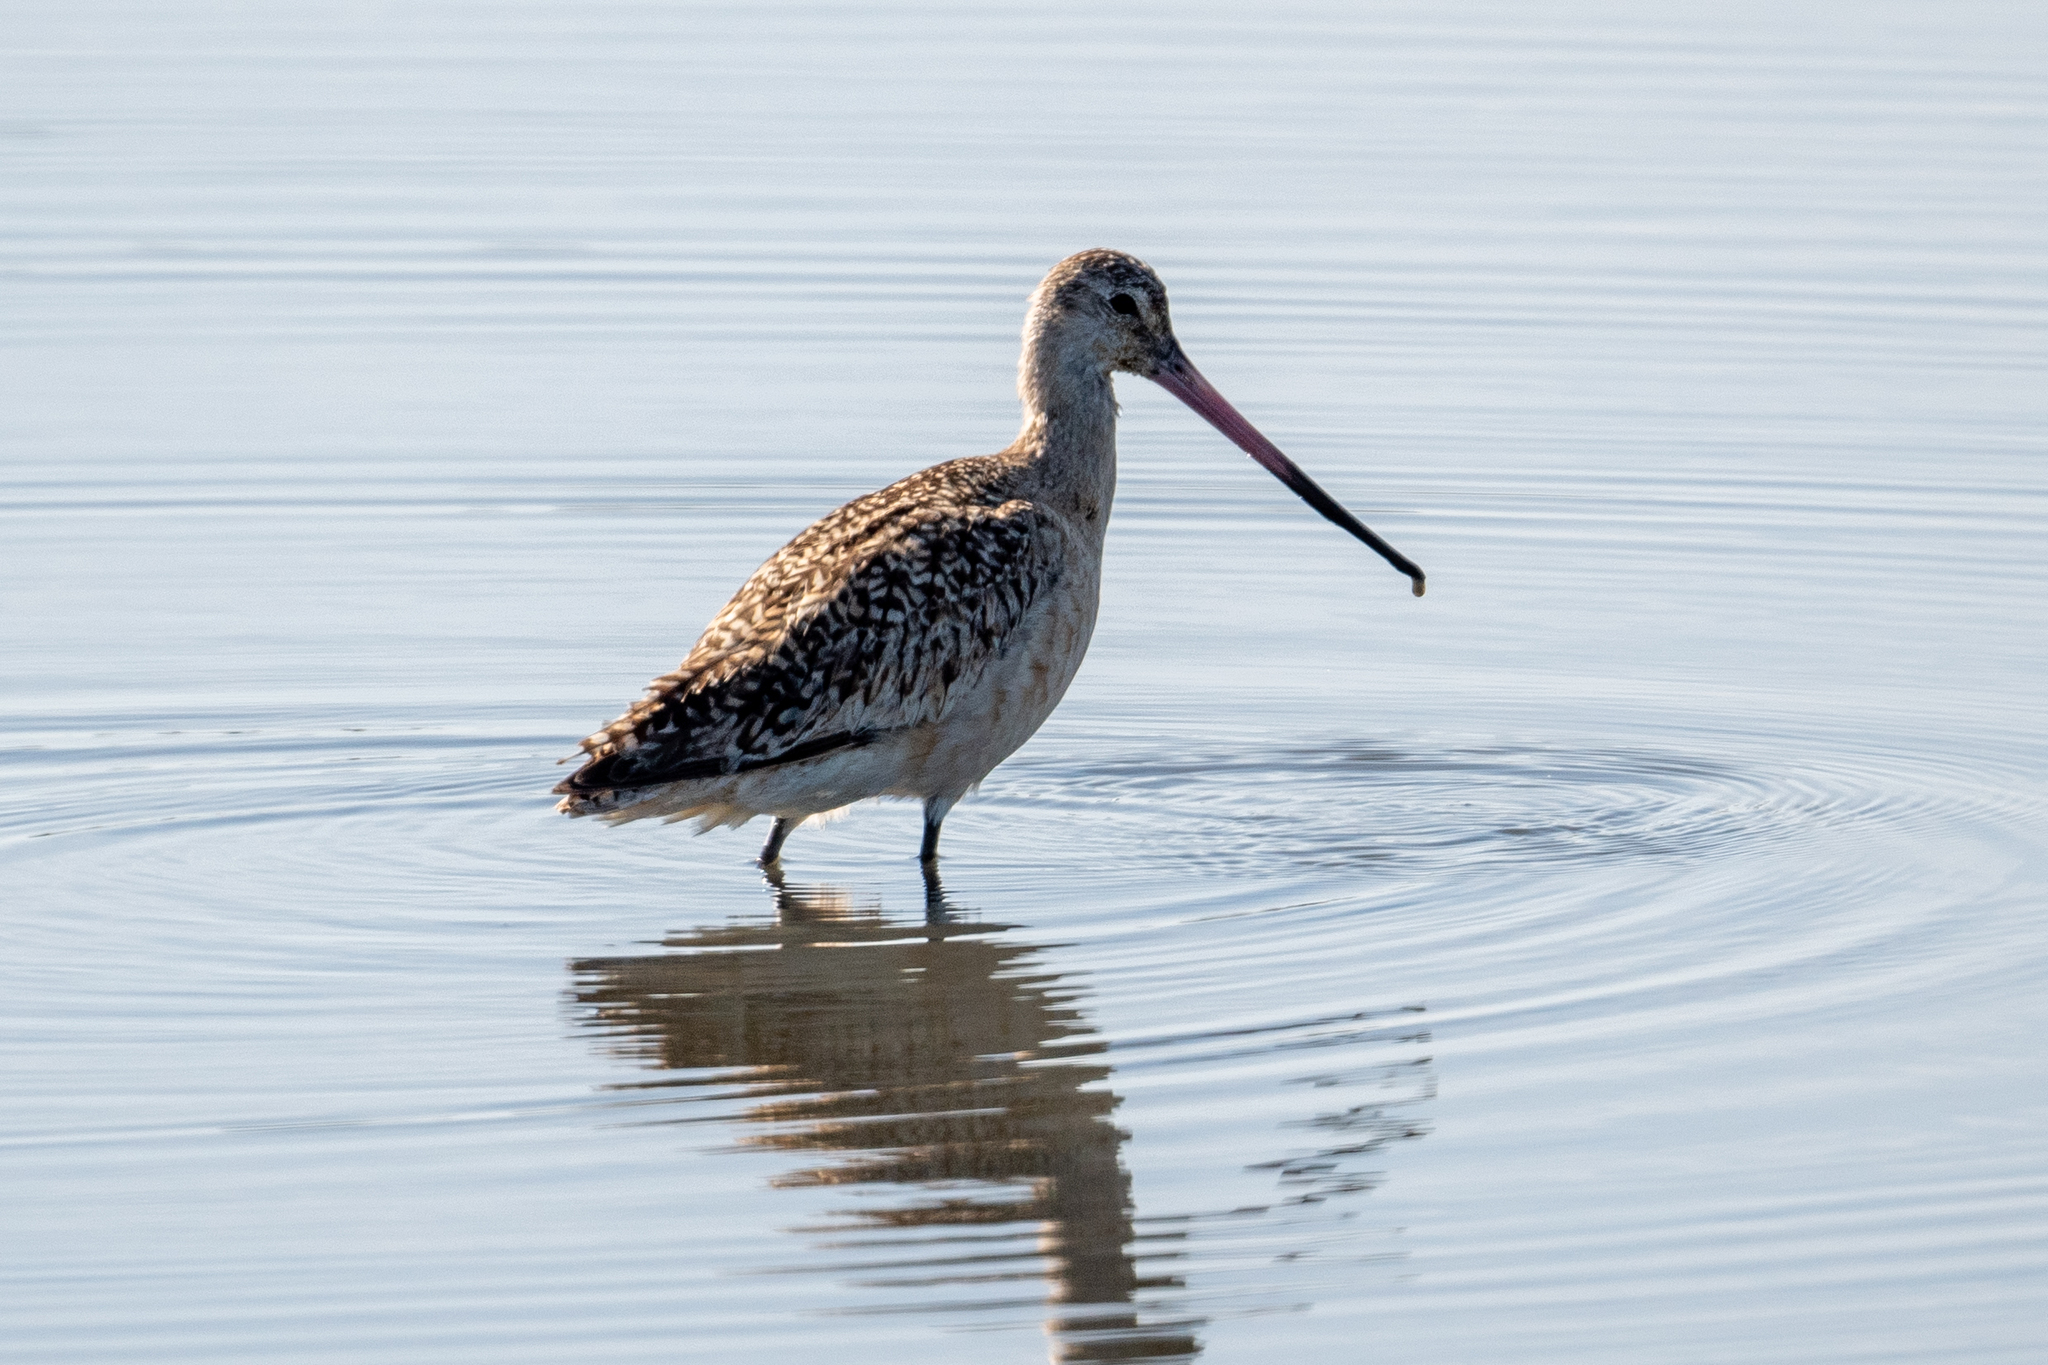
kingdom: Animalia
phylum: Chordata
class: Aves
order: Charadriiformes
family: Scolopacidae
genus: Limosa
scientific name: Limosa fedoa
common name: Marbled godwit
